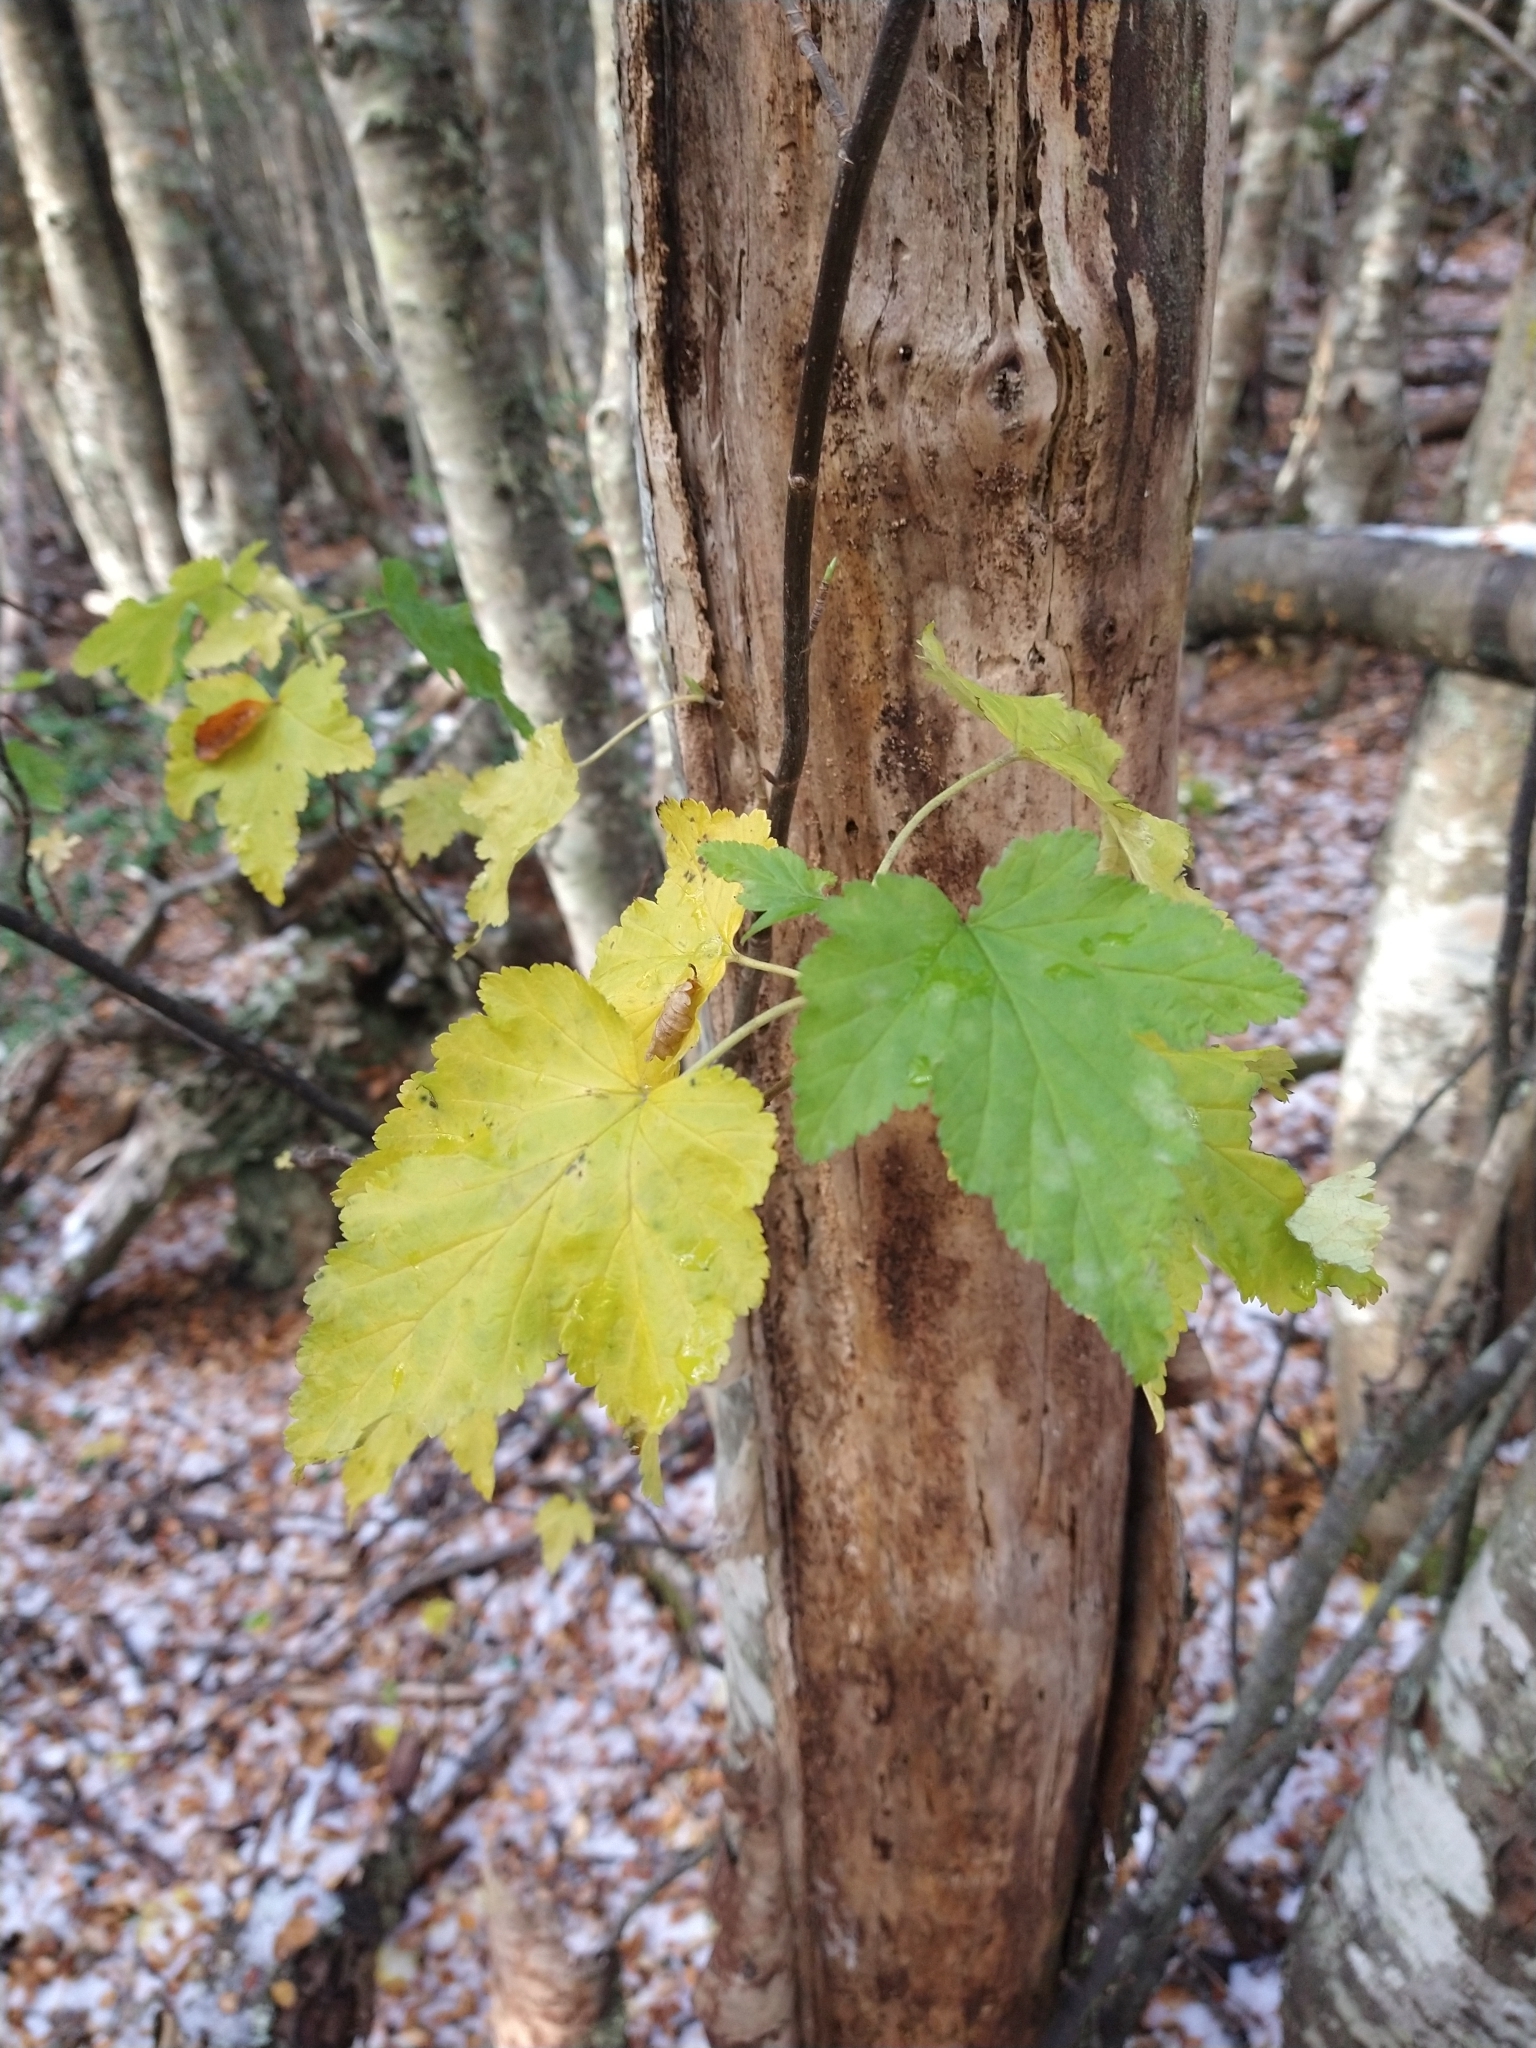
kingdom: Plantae
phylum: Tracheophyta
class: Magnoliopsida
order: Saxifragales
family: Grossulariaceae
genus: Ribes
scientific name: Ribes magellanicum
